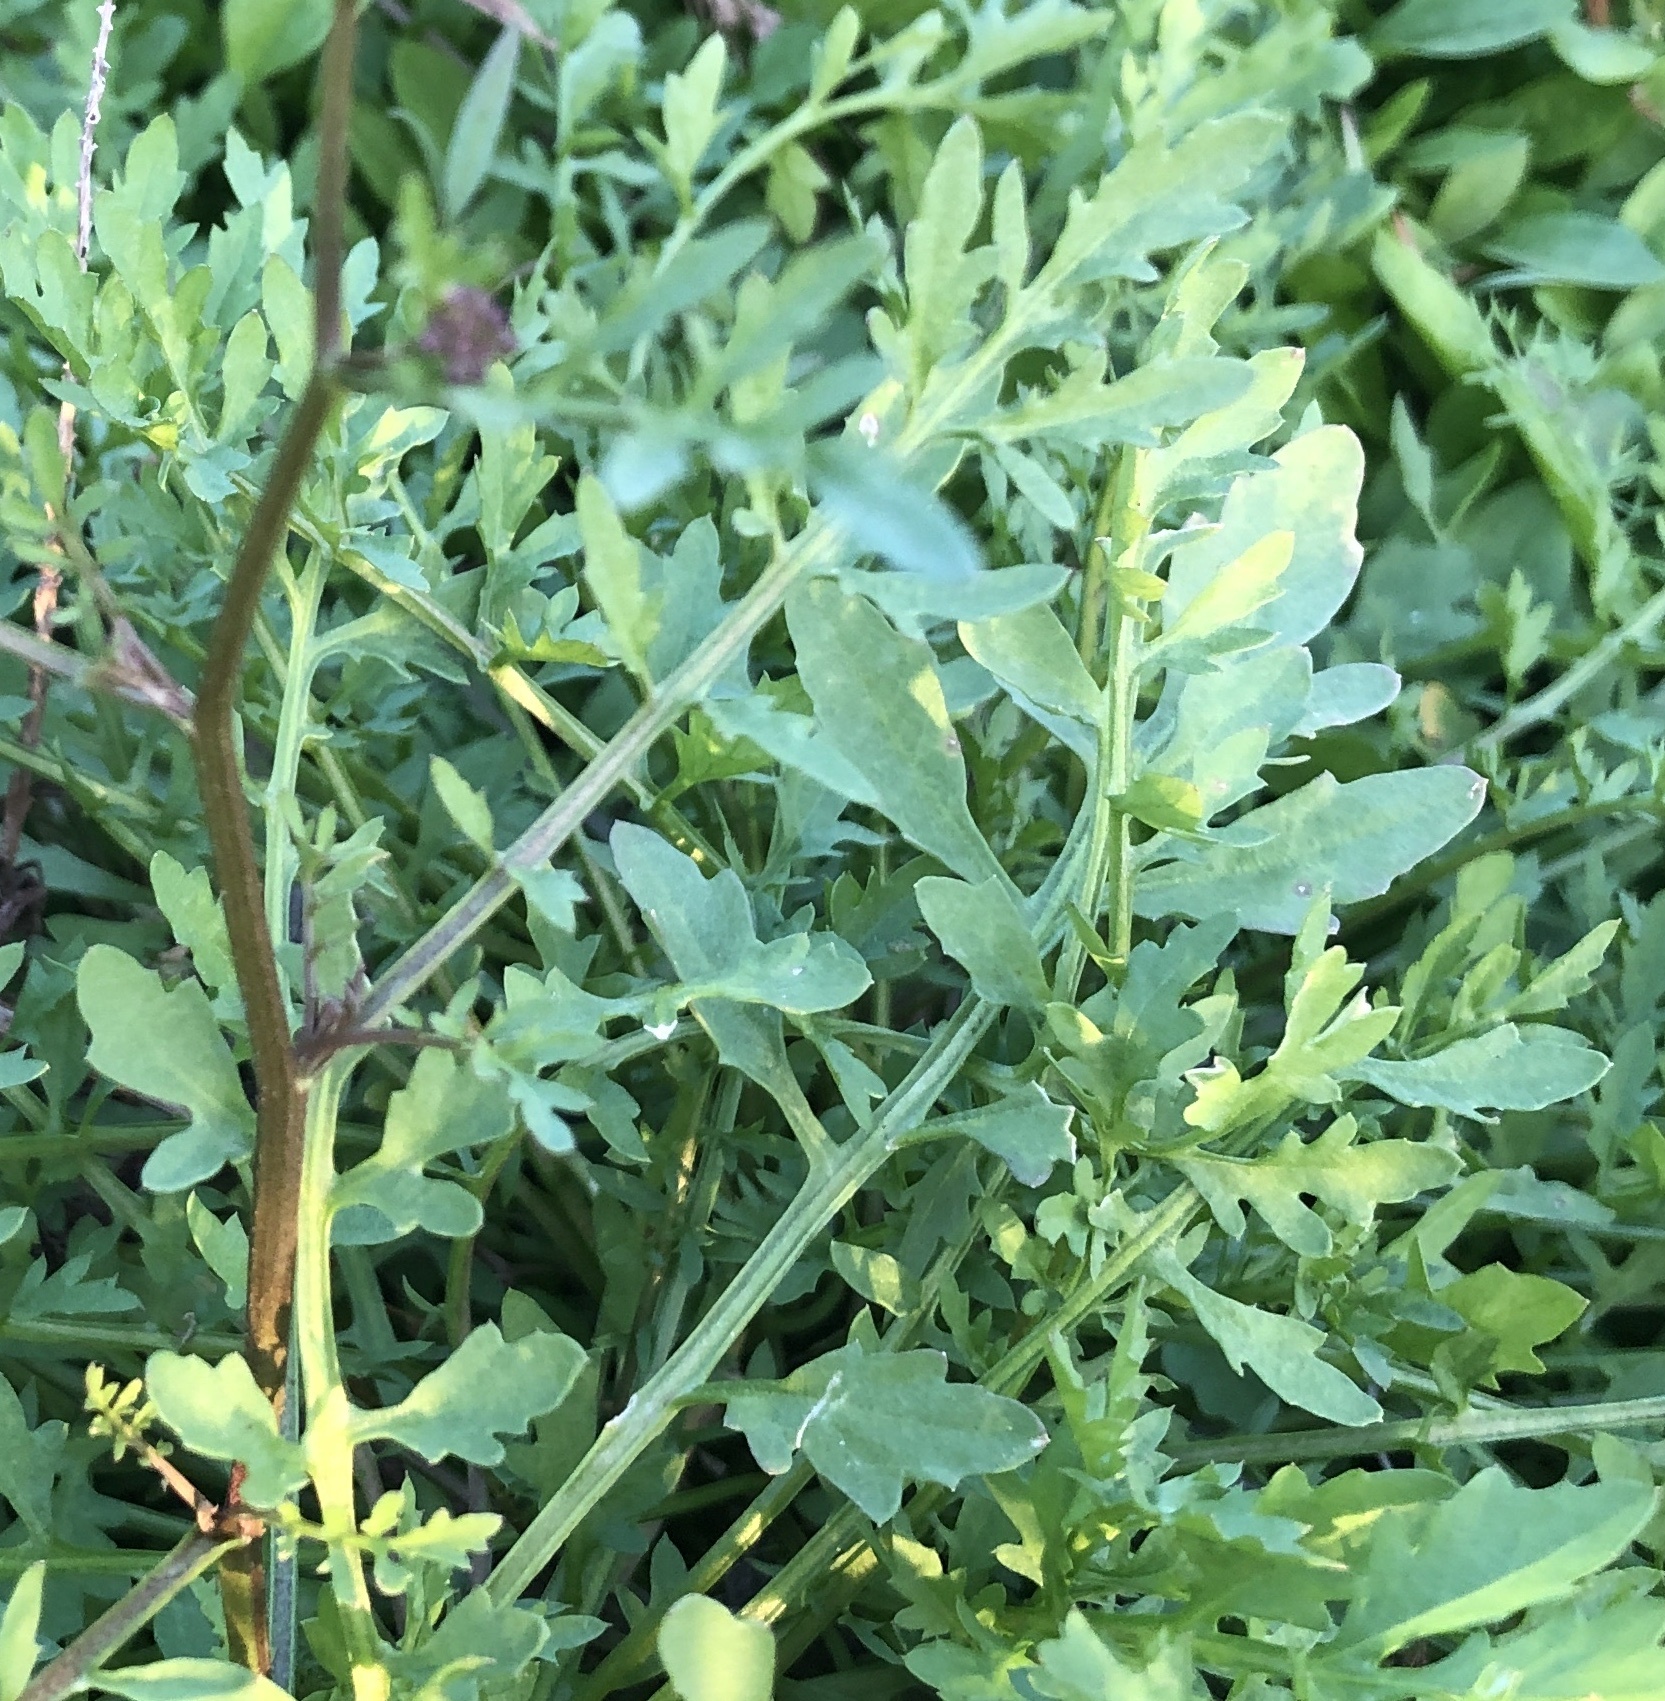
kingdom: Plantae
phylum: Tracheophyta
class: Magnoliopsida
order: Brassicales
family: Brassicaceae
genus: Rorippa
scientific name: Rorippa sylvestris
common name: Creeping yellowcress
